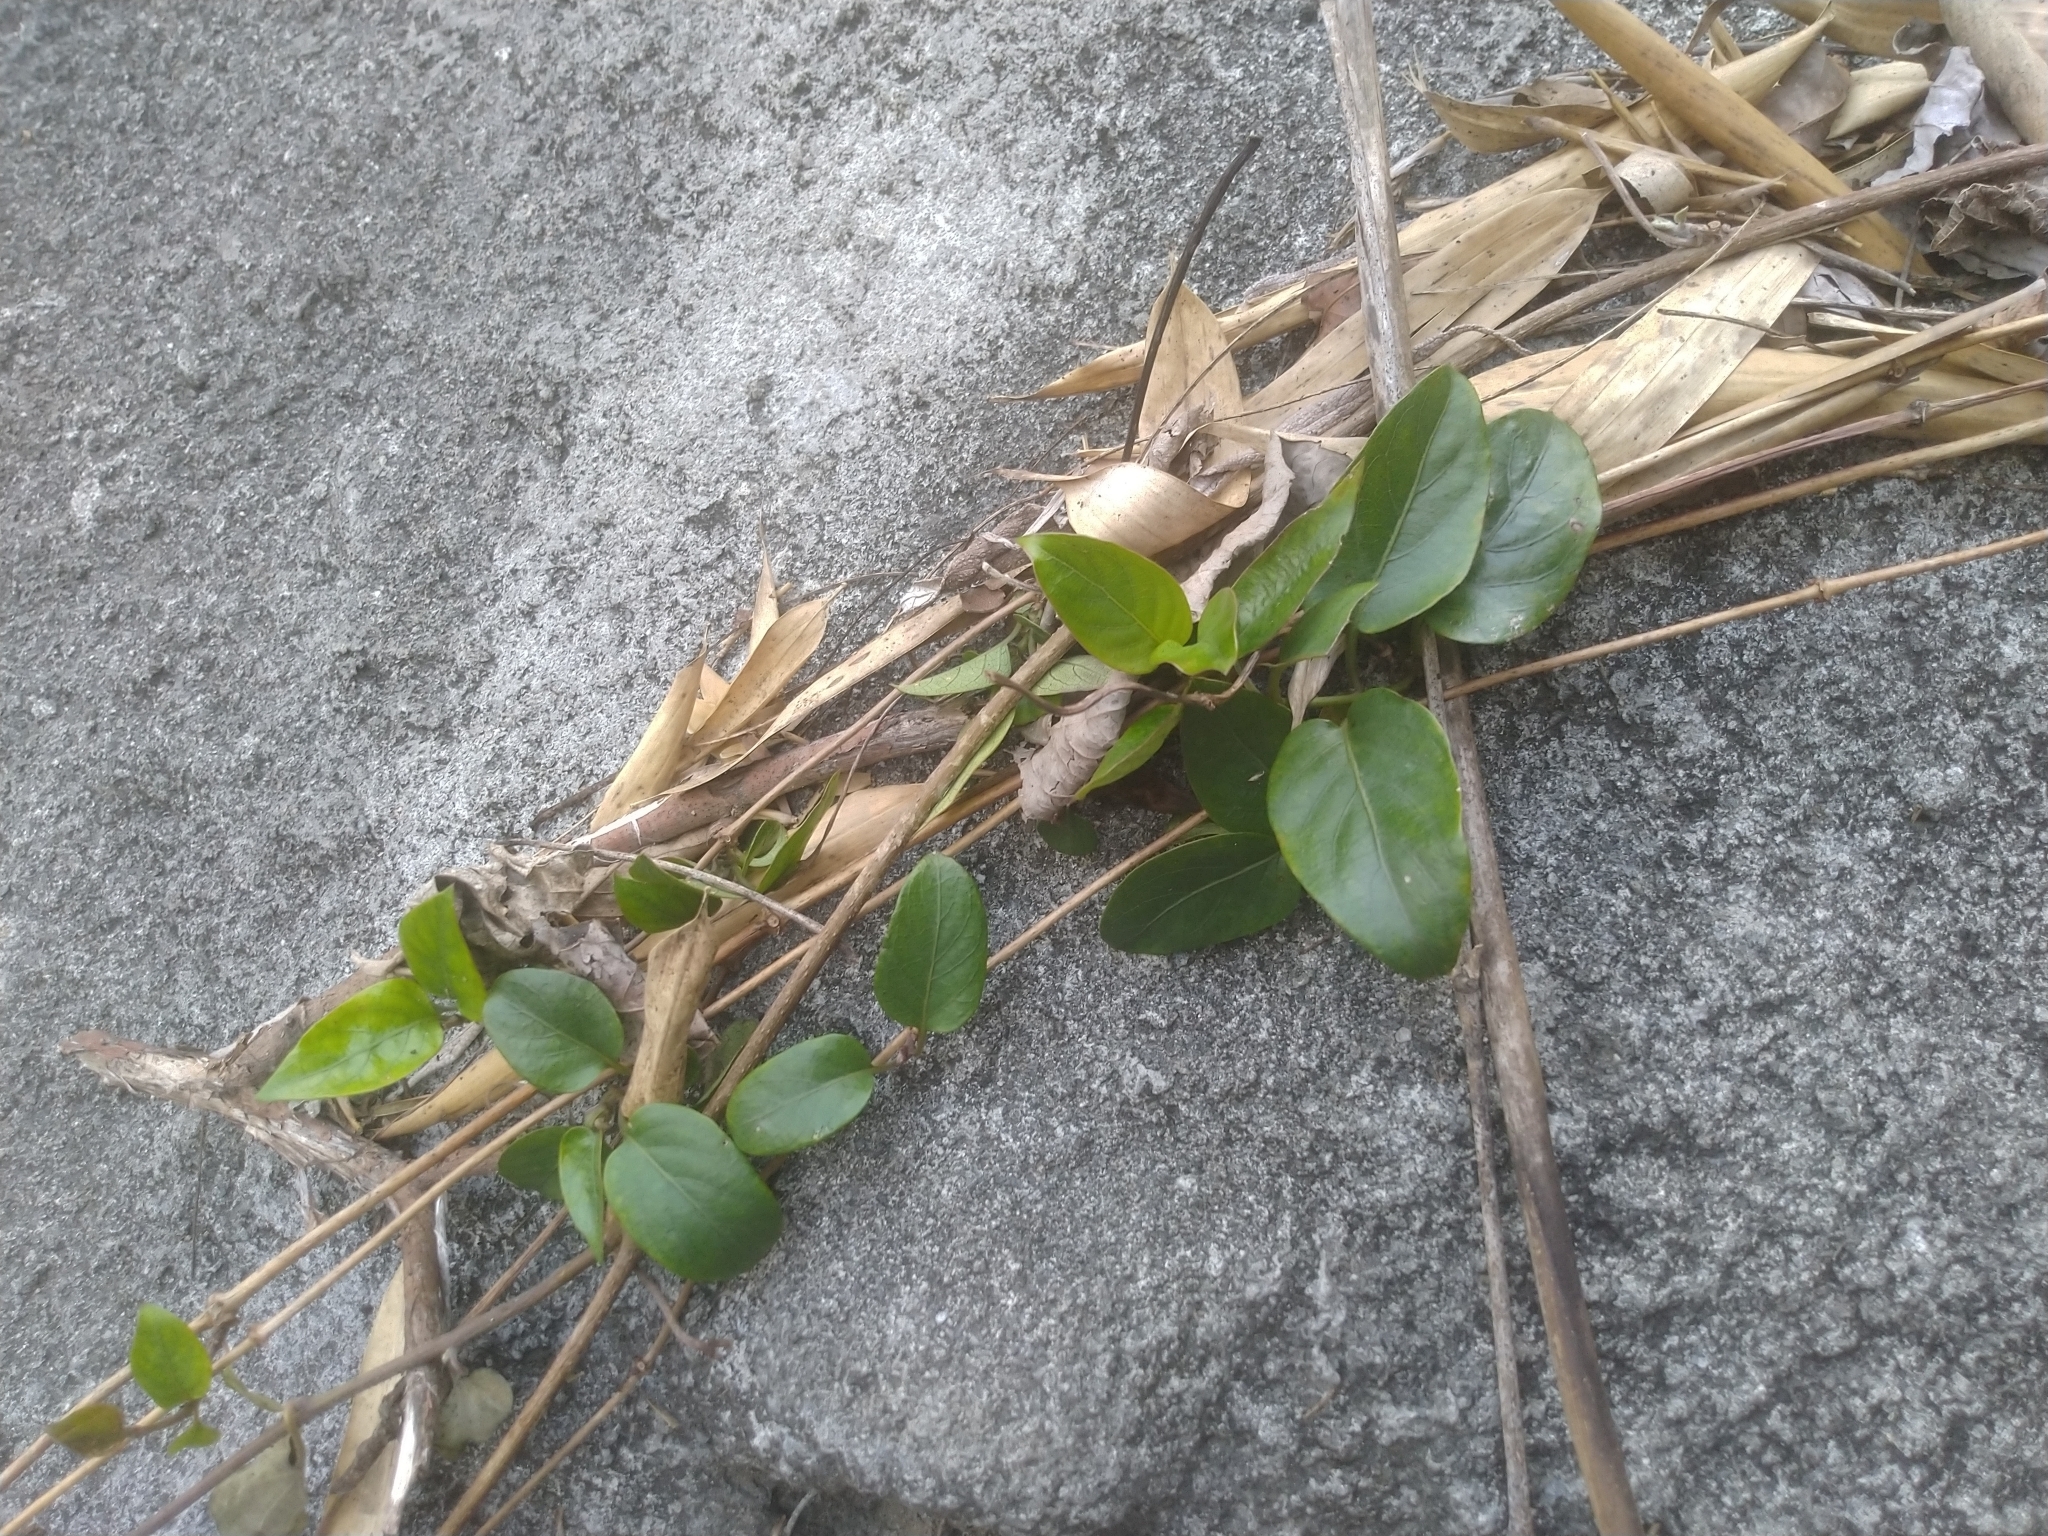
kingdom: Plantae
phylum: Tracheophyta
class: Magnoliopsida
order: Gentianales
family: Rubiaceae
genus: Paederia
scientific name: Paederia foetida
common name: Stinkvine
